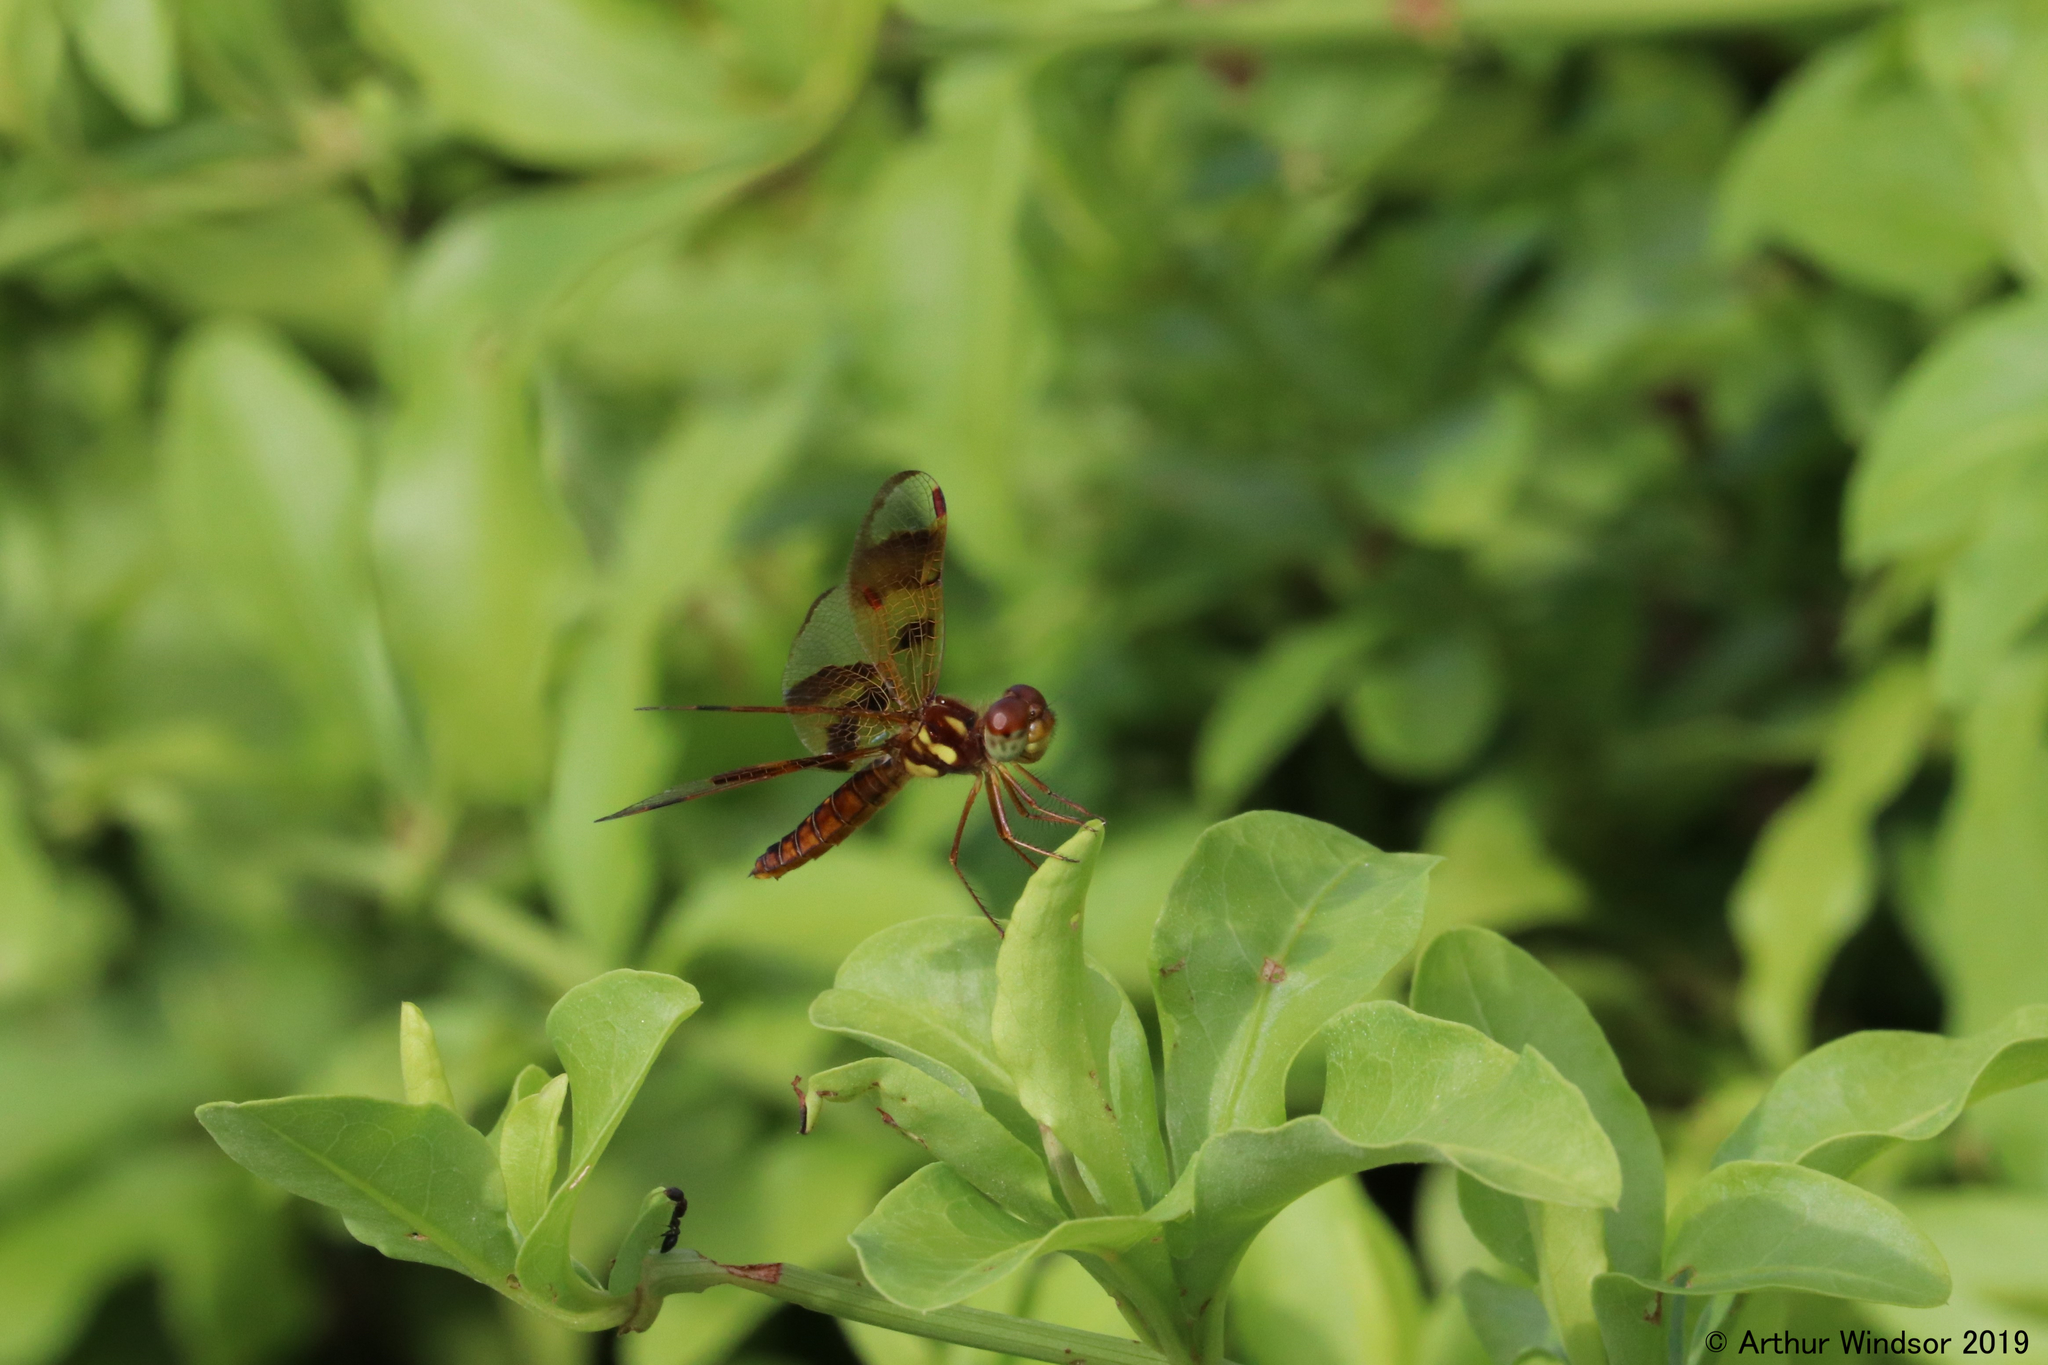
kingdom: Animalia
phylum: Arthropoda
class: Insecta
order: Odonata
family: Libellulidae
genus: Perithemis
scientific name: Perithemis tenera
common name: Eastern amberwing
